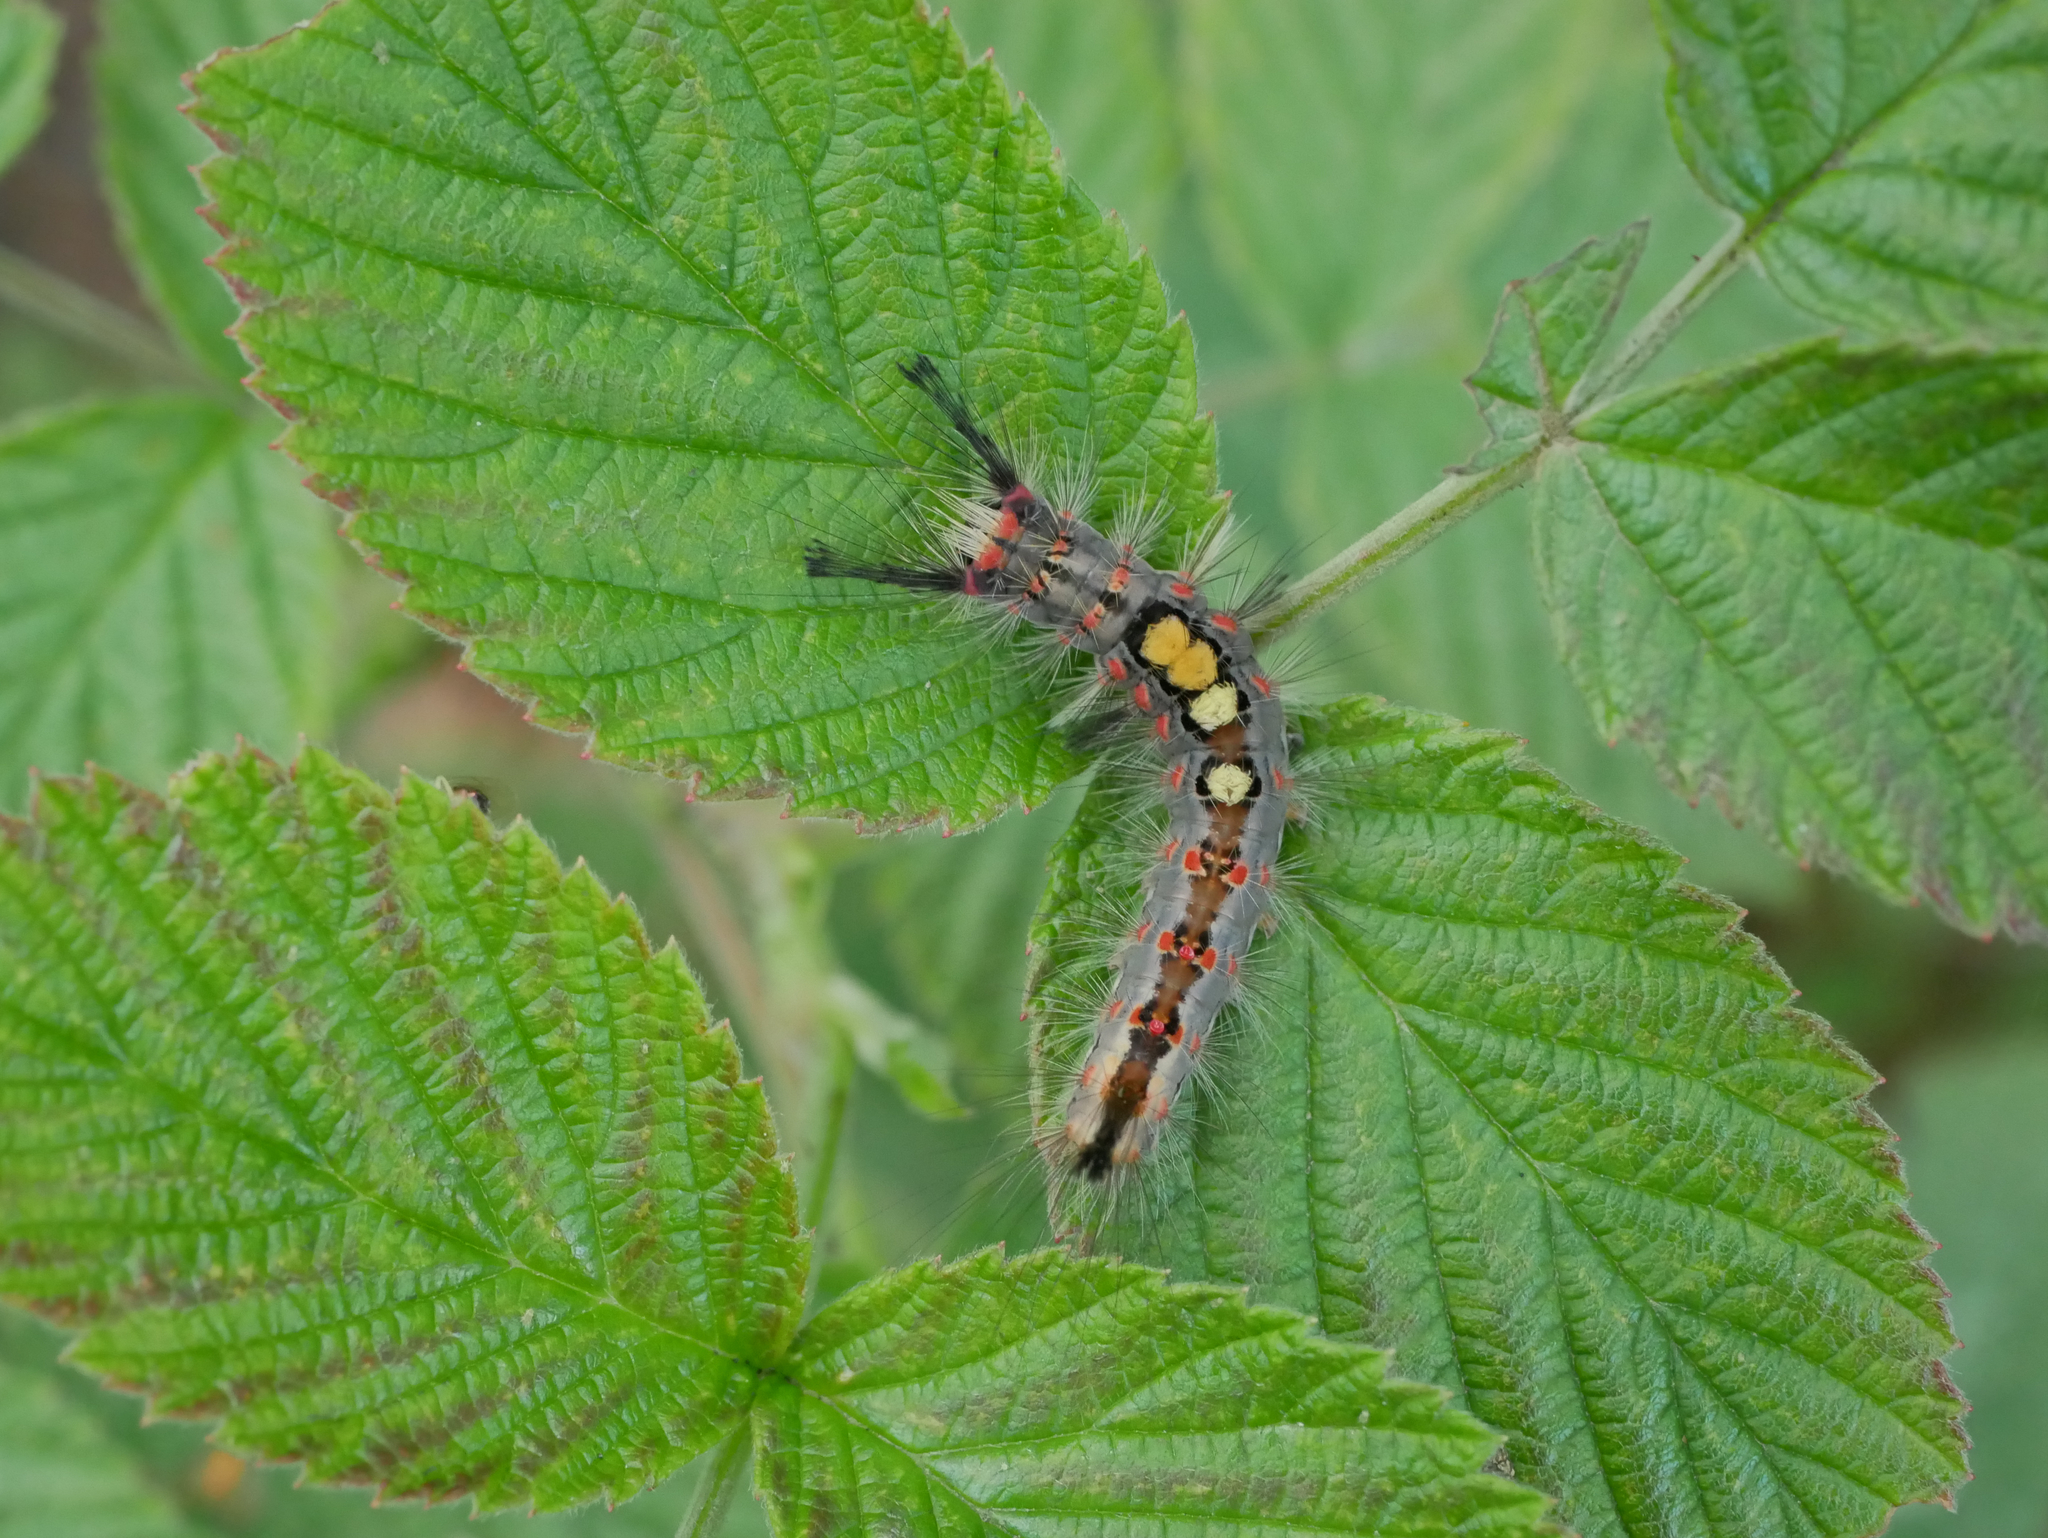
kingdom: Animalia
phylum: Arthropoda
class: Insecta
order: Lepidoptera
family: Erebidae
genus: Orgyia
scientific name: Orgyia antiqua
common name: Vapourer
